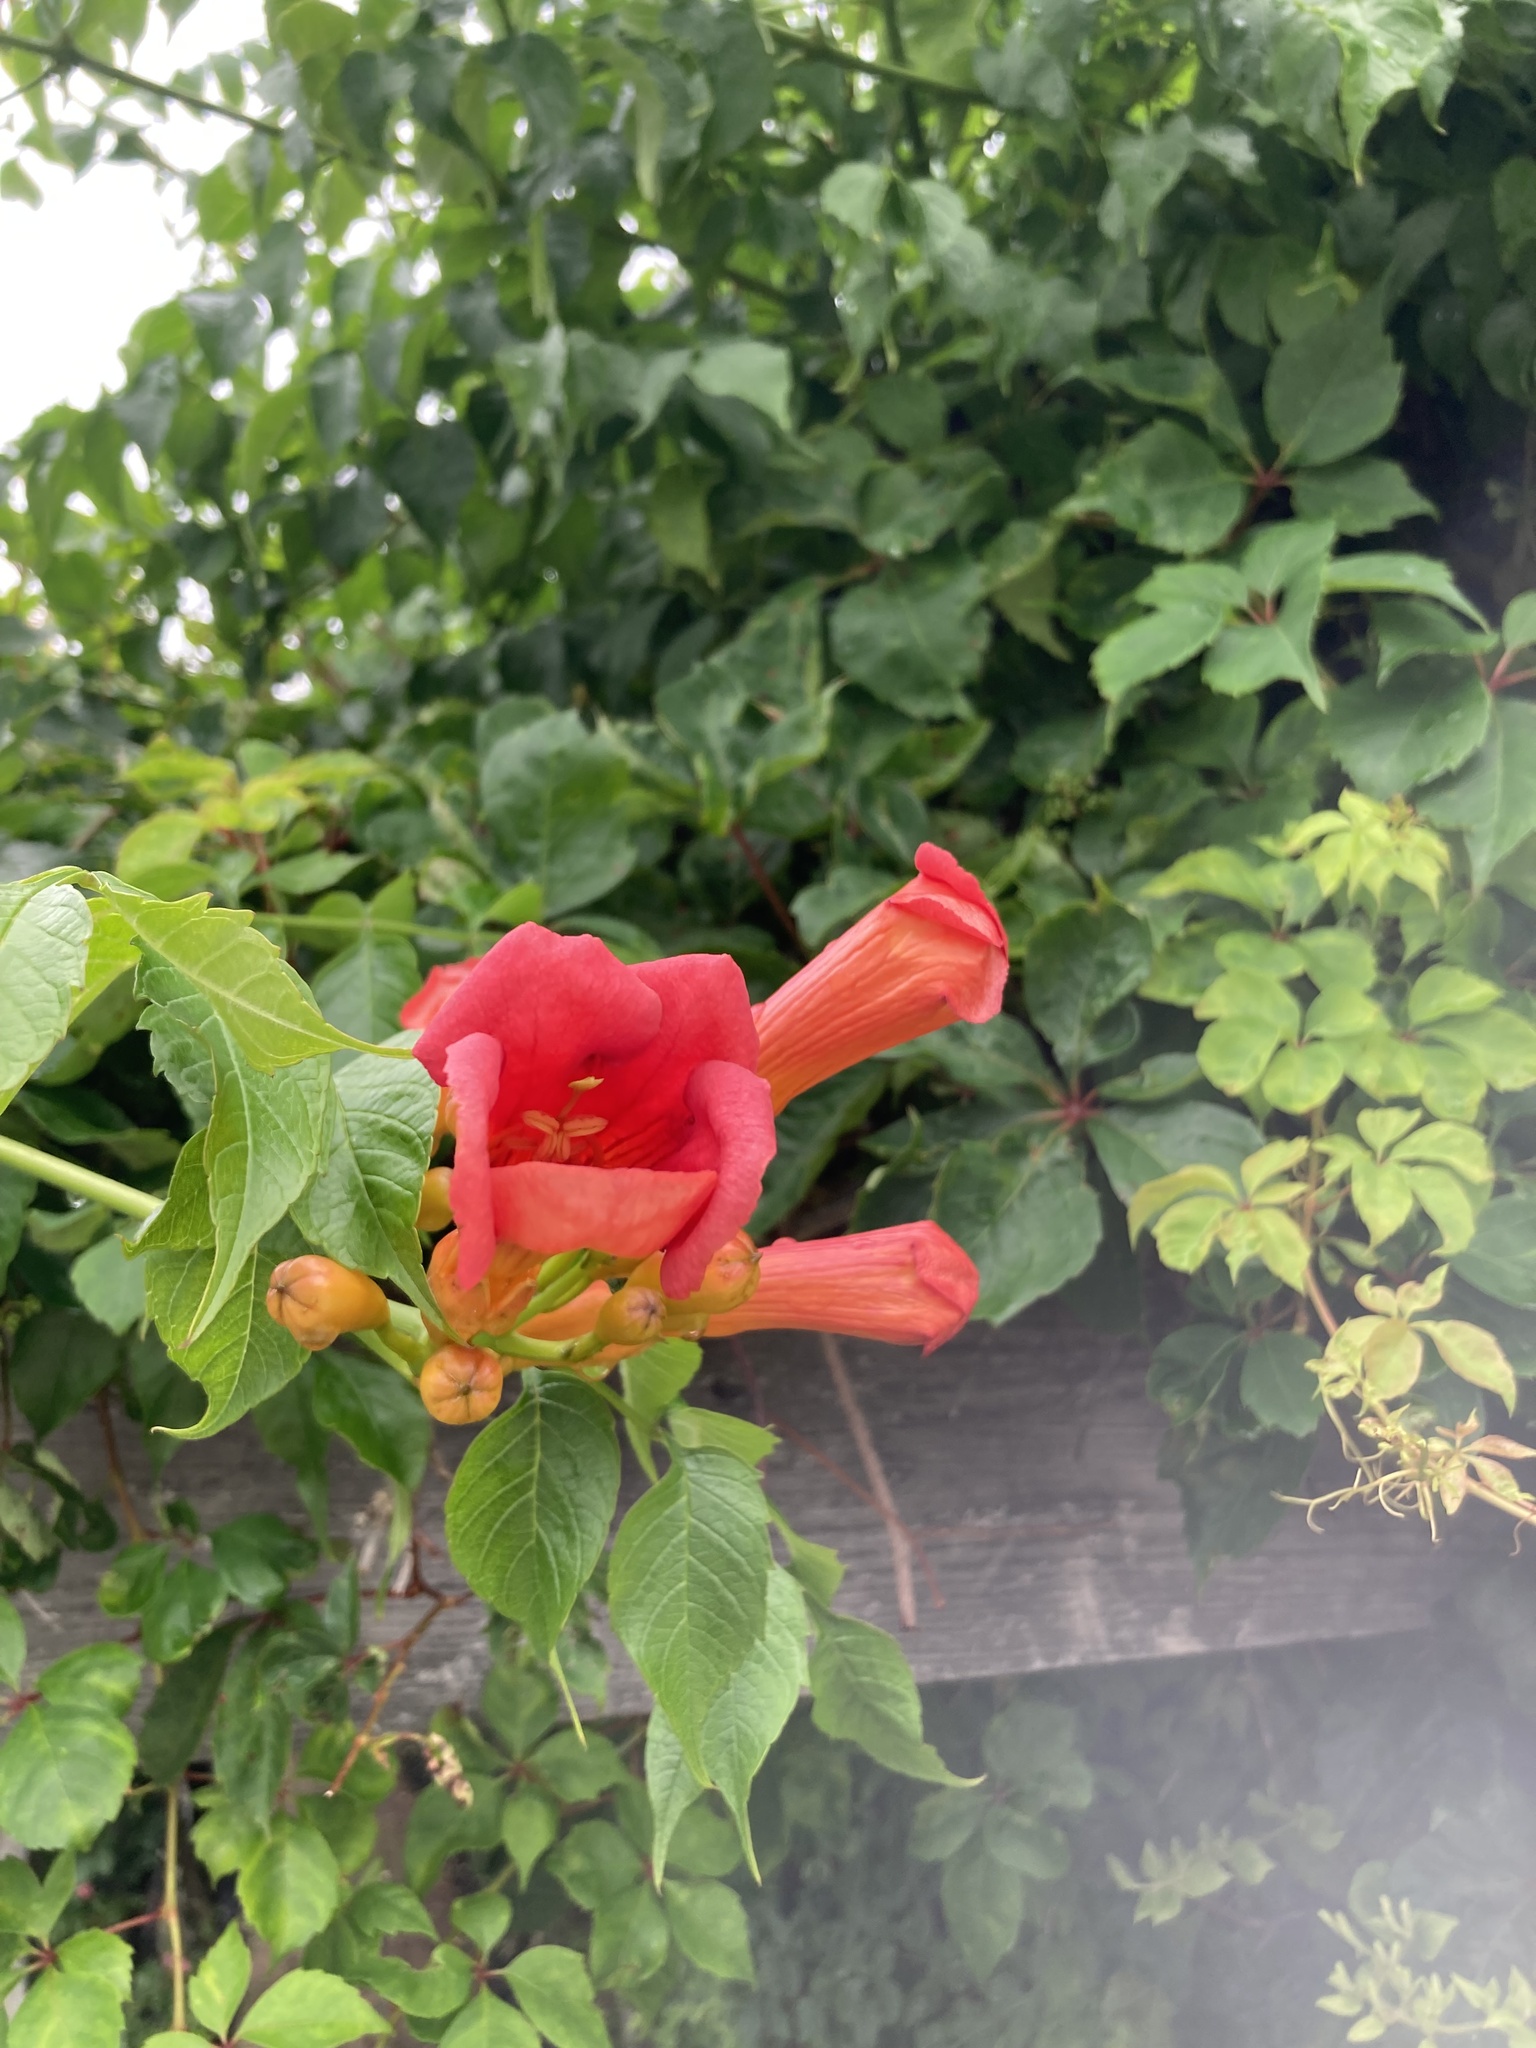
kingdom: Plantae
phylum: Tracheophyta
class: Magnoliopsida
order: Lamiales
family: Bignoniaceae
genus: Campsis
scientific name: Campsis radicans
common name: Trumpet-creeper
